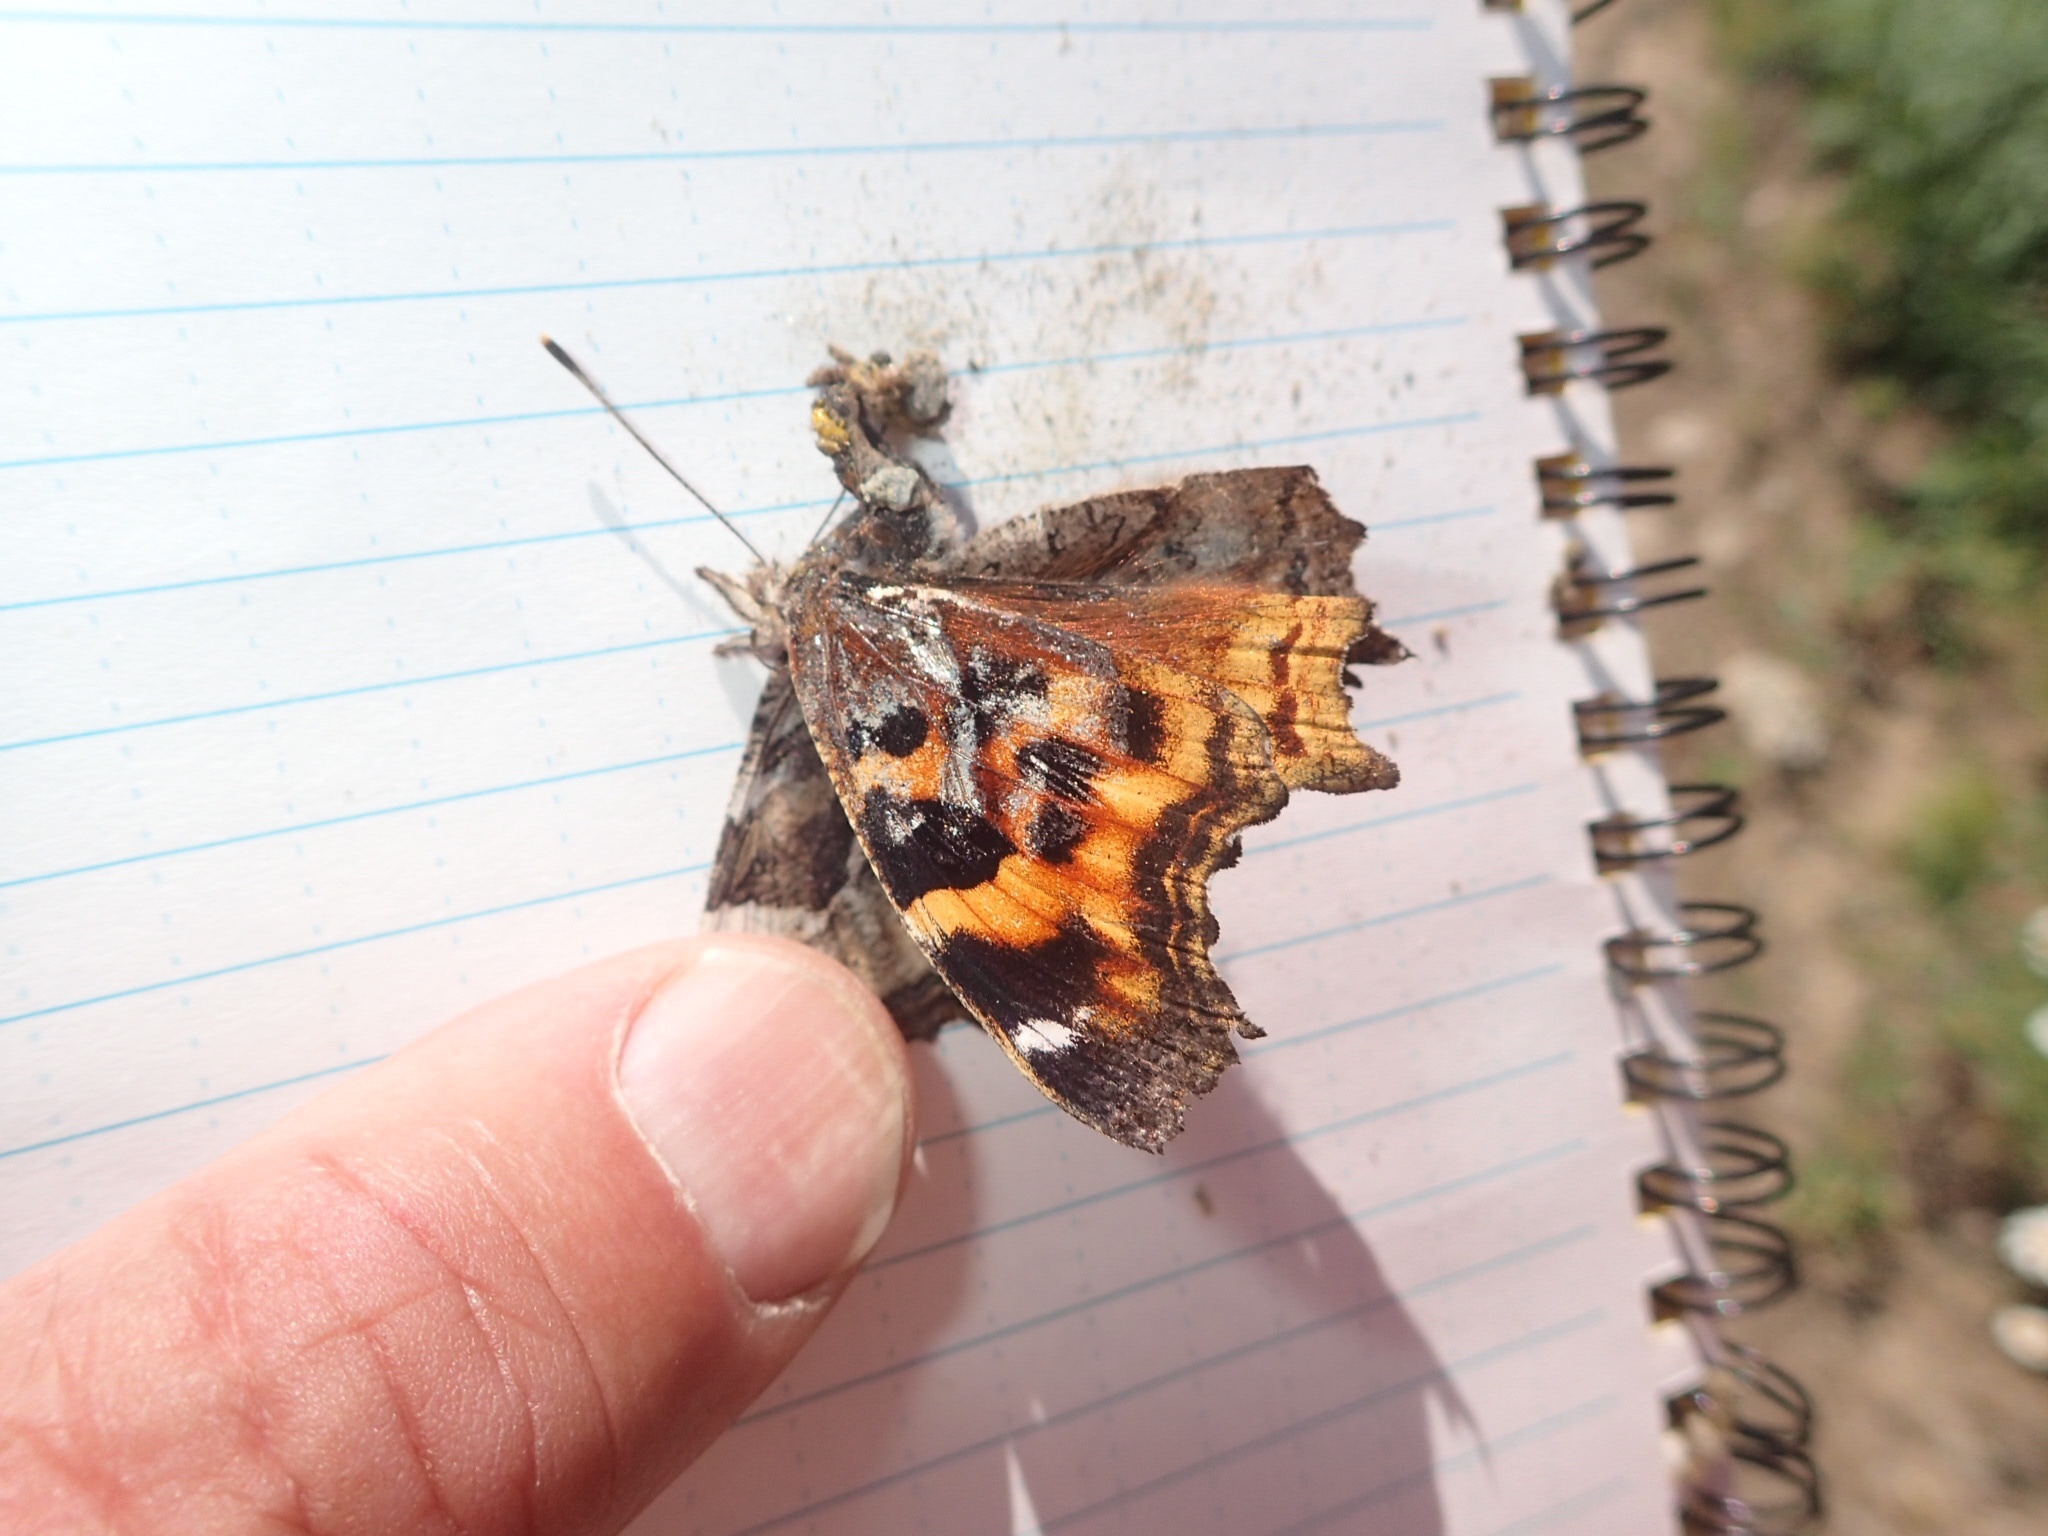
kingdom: Animalia
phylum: Arthropoda
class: Insecta
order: Lepidoptera
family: Nymphalidae
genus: Polygonia
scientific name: Polygonia vaualbum
